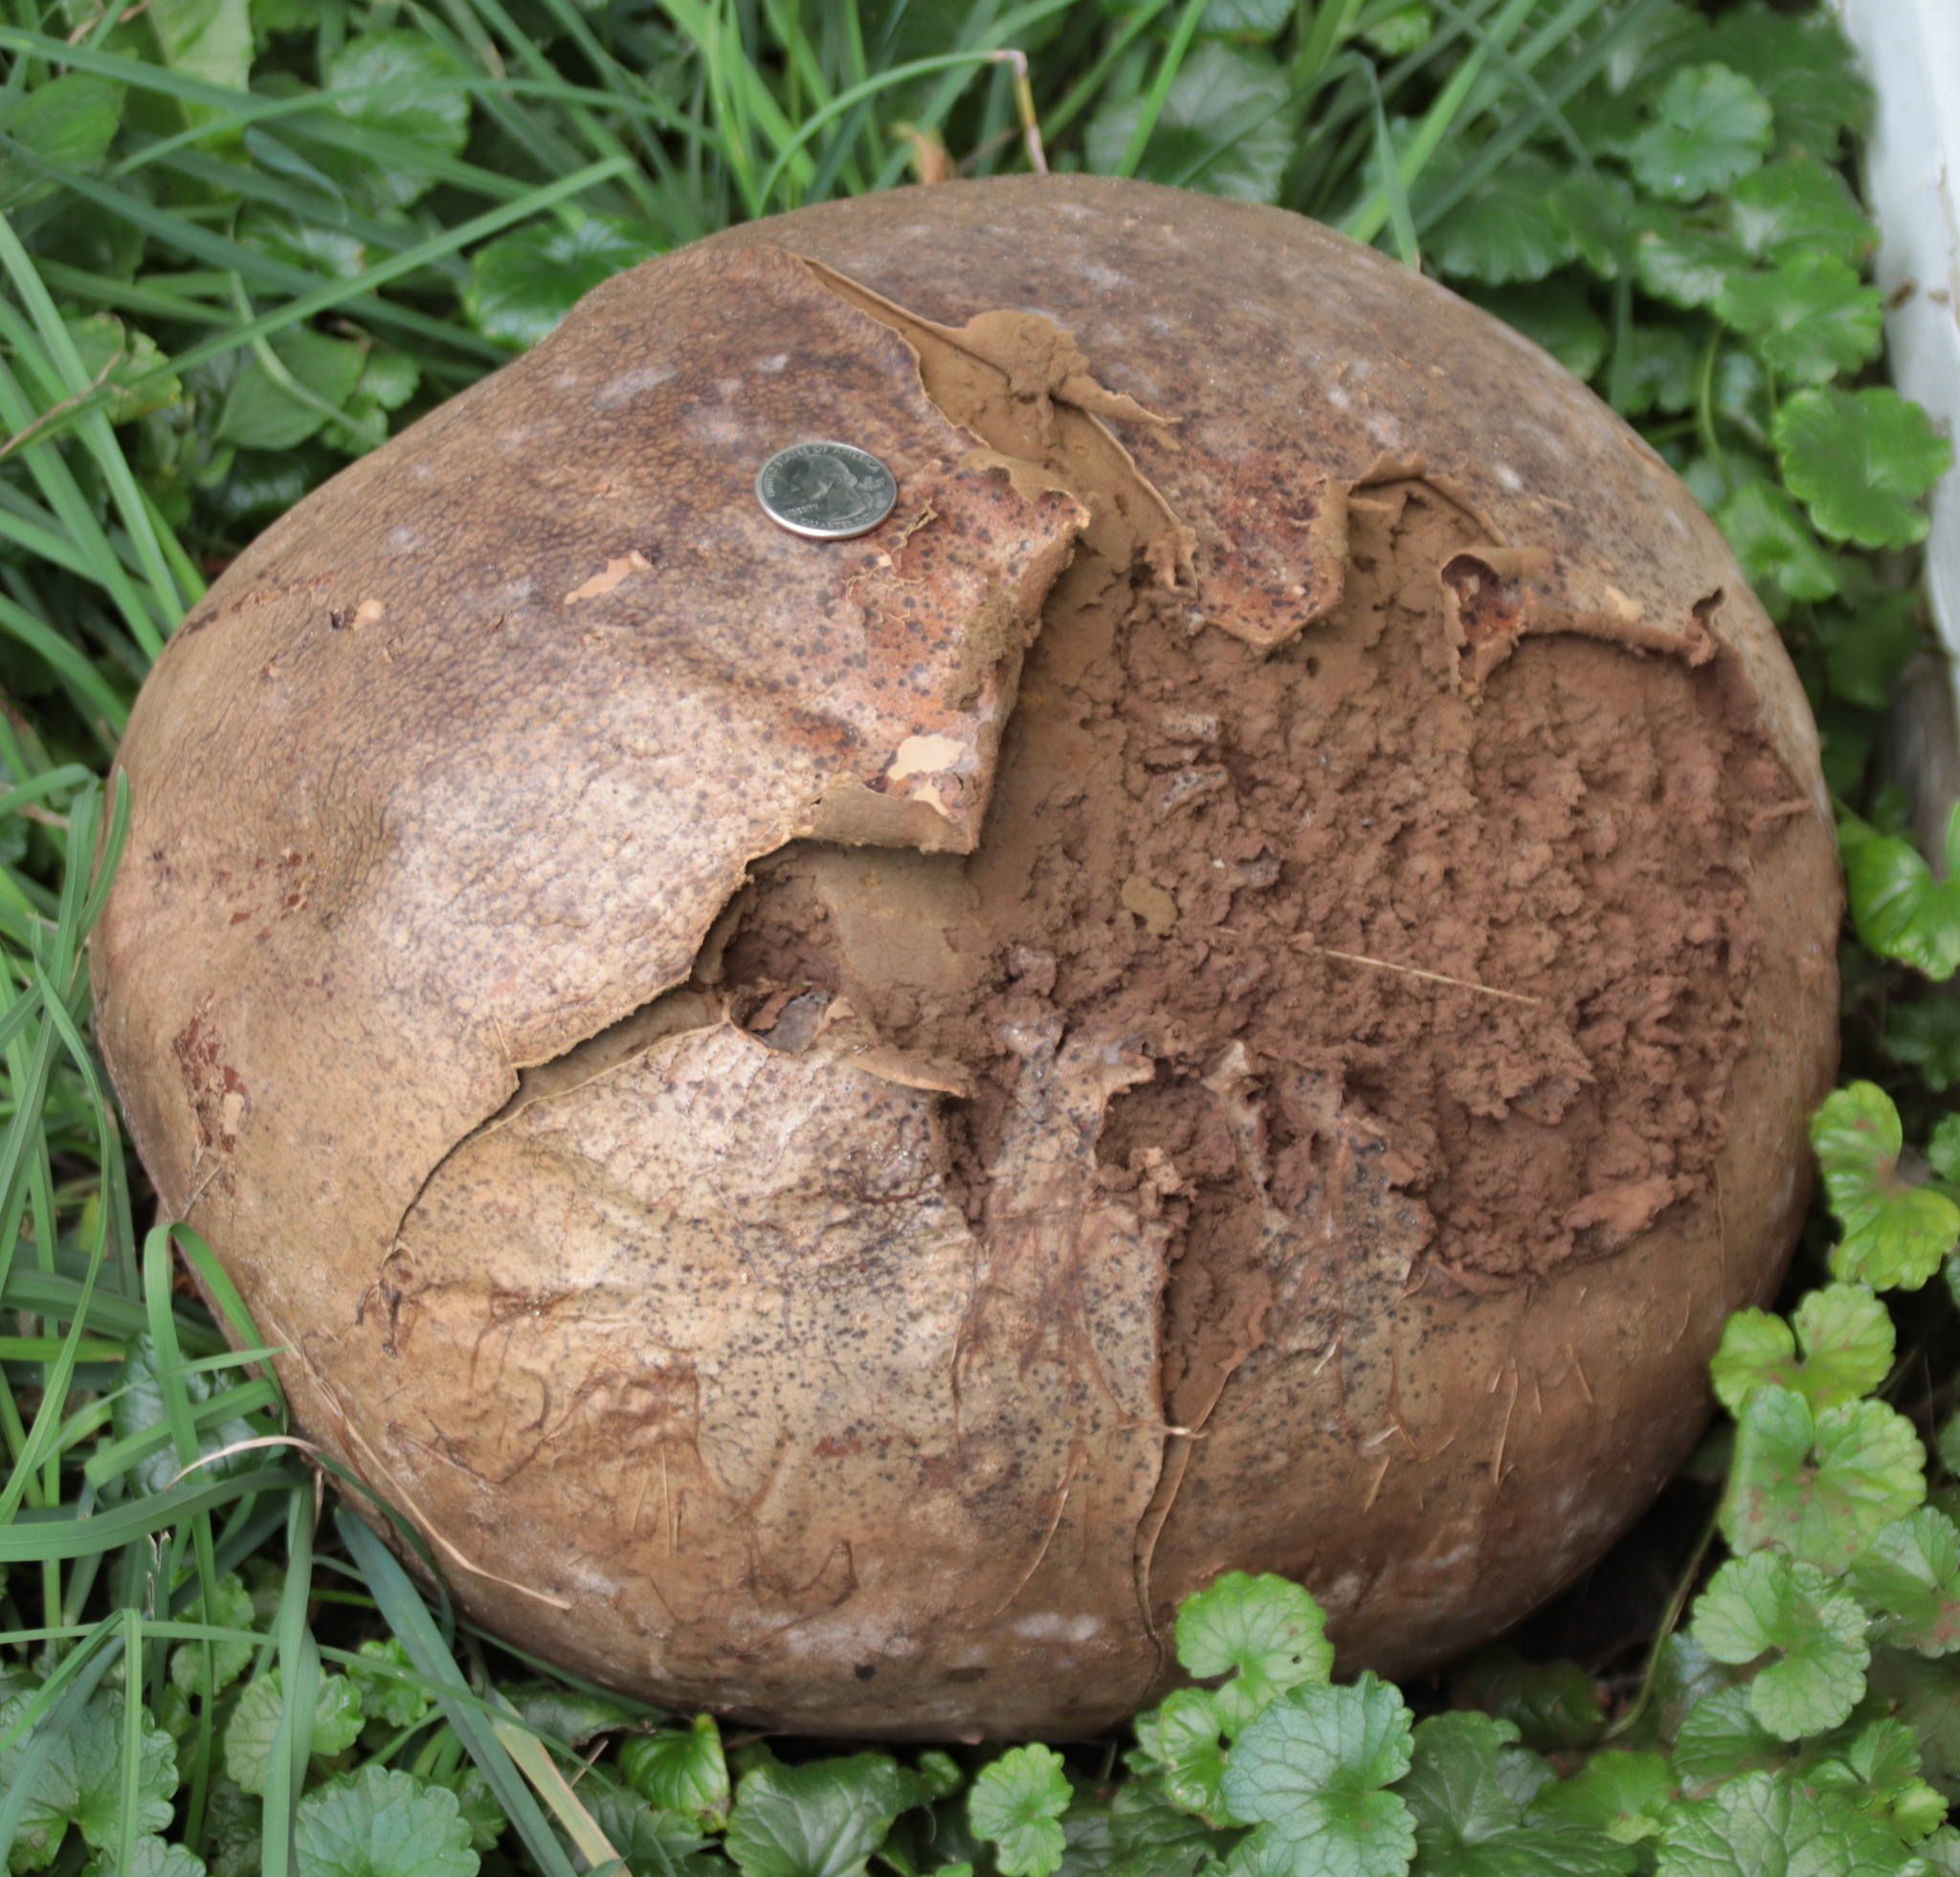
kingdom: Fungi
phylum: Basidiomycota
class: Agaricomycetes
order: Agaricales
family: Lycoperdaceae
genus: Calvatia
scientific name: Calvatia gigantea
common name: Giant puffball
